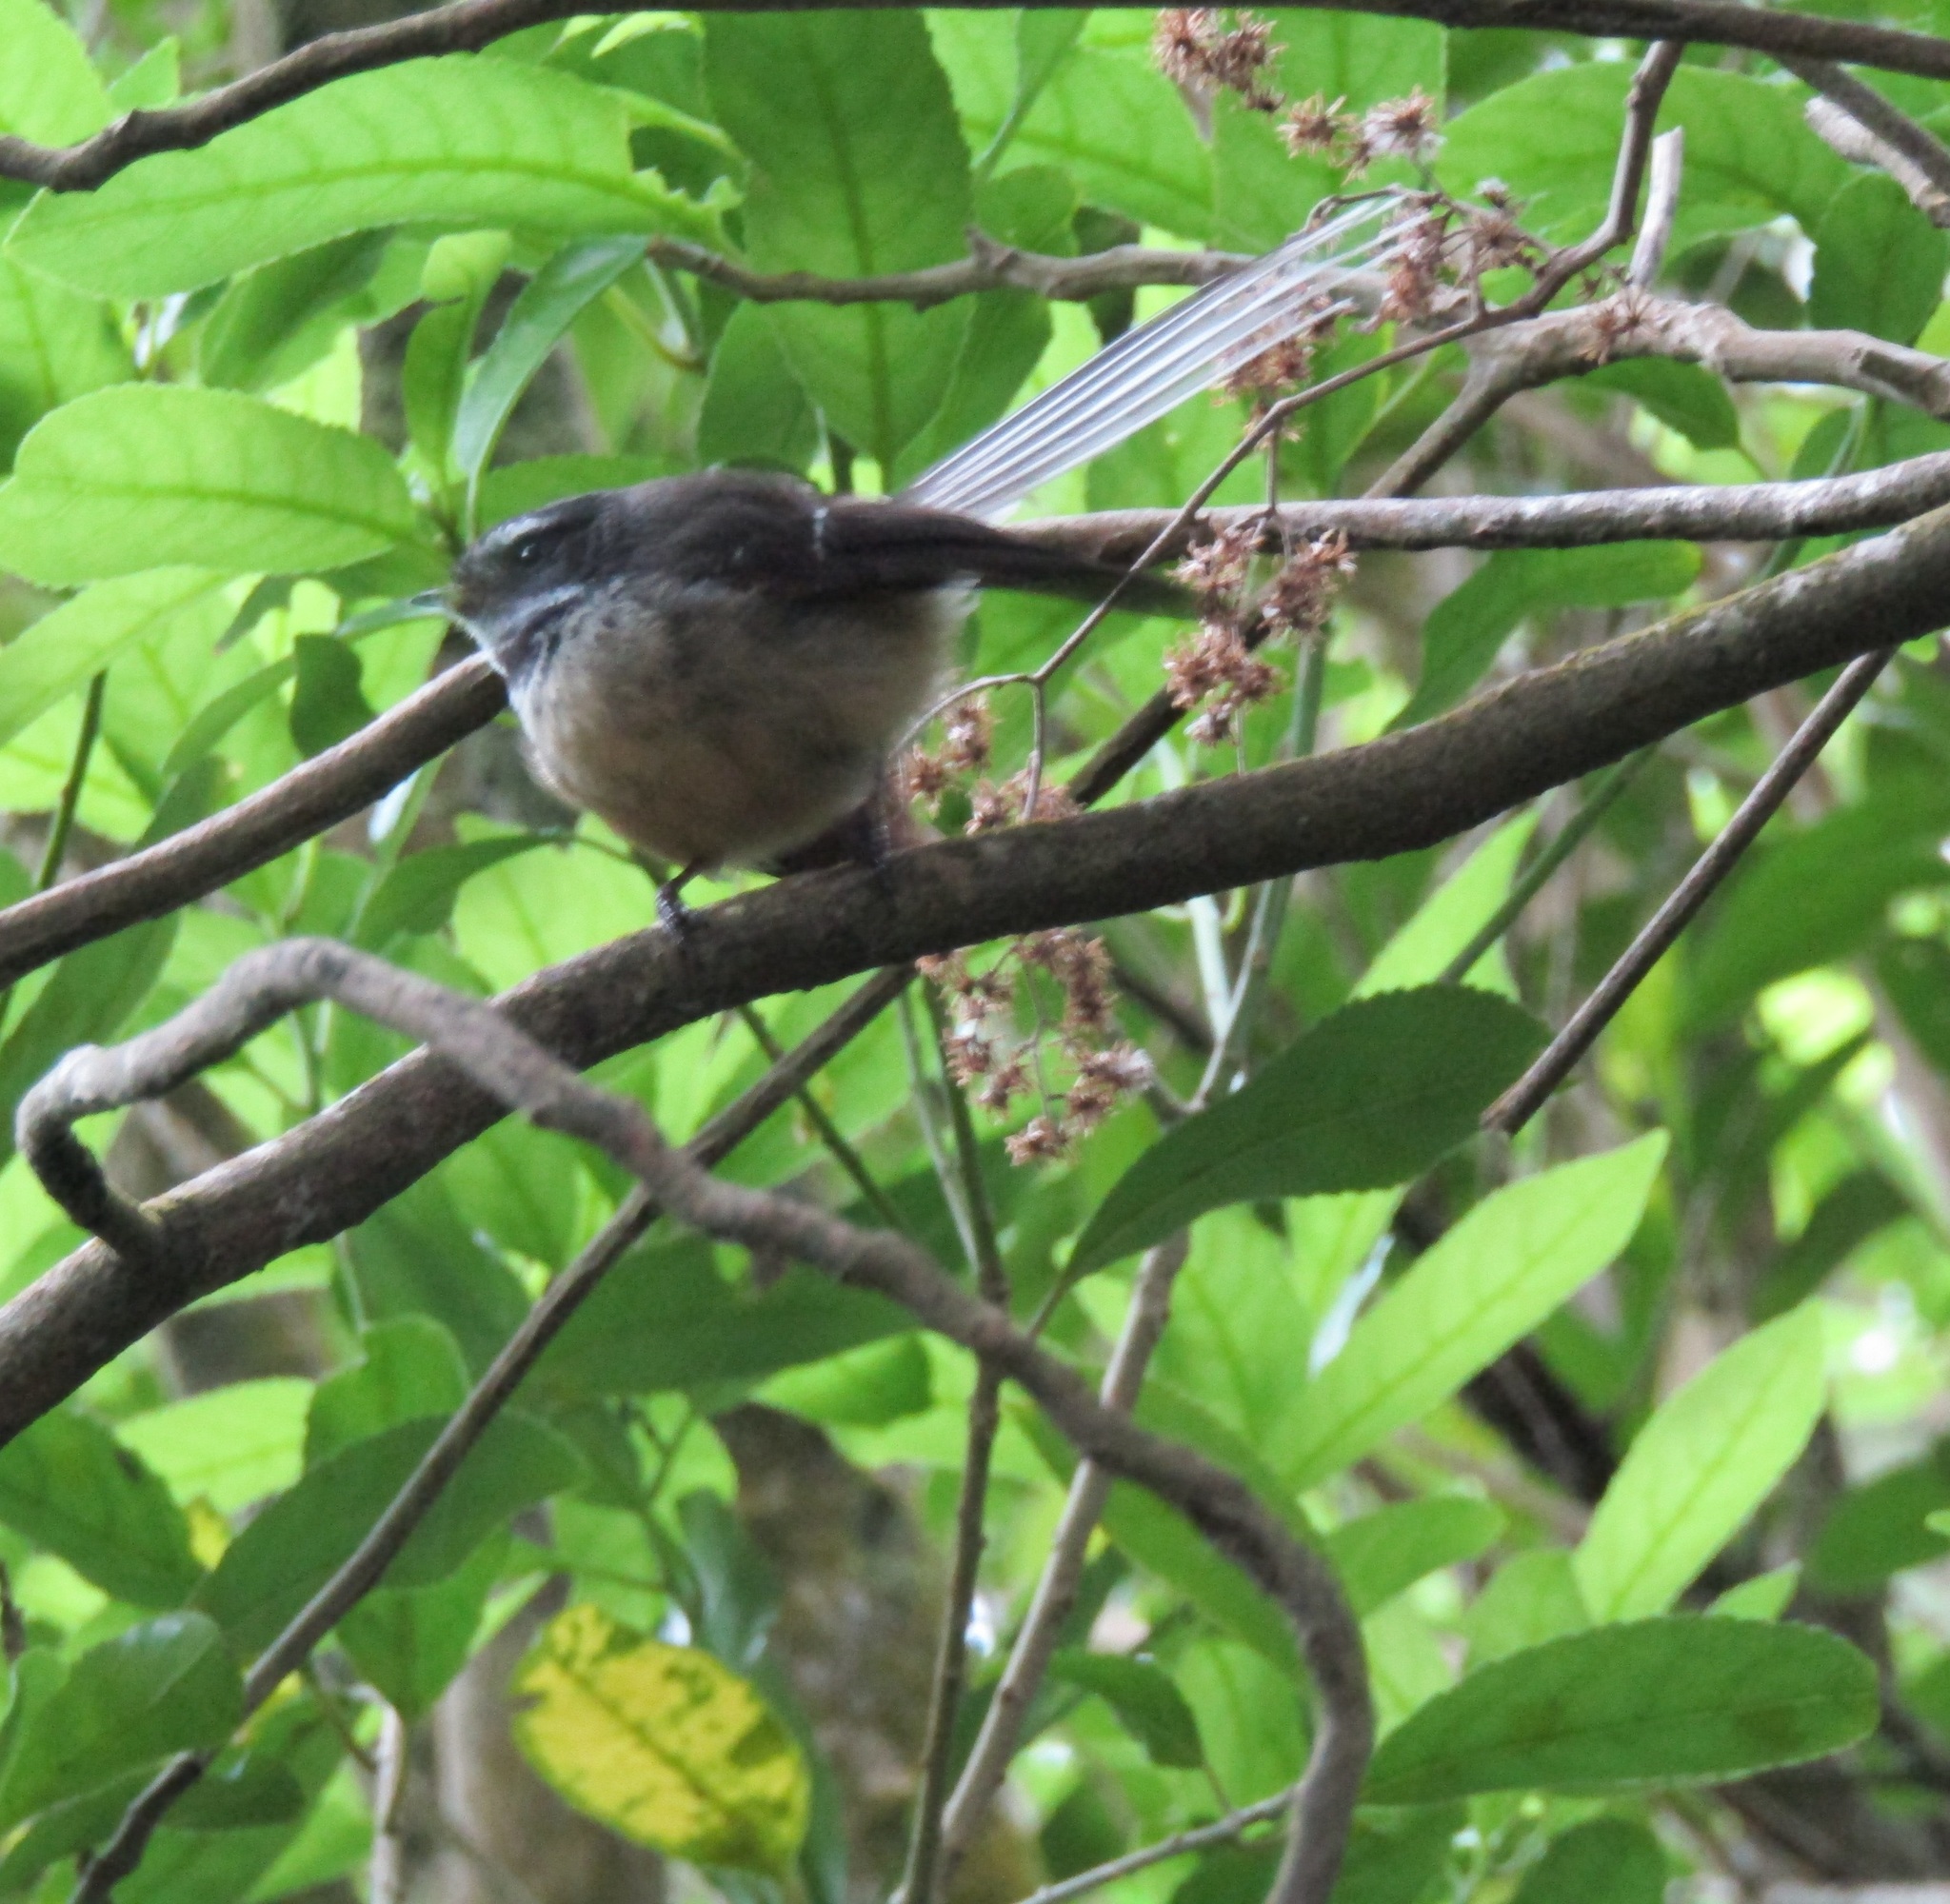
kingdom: Animalia
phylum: Chordata
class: Aves
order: Passeriformes
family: Rhipiduridae
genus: Rhipidura
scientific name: Rhipidura fuliginosa
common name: New zealand fantail
